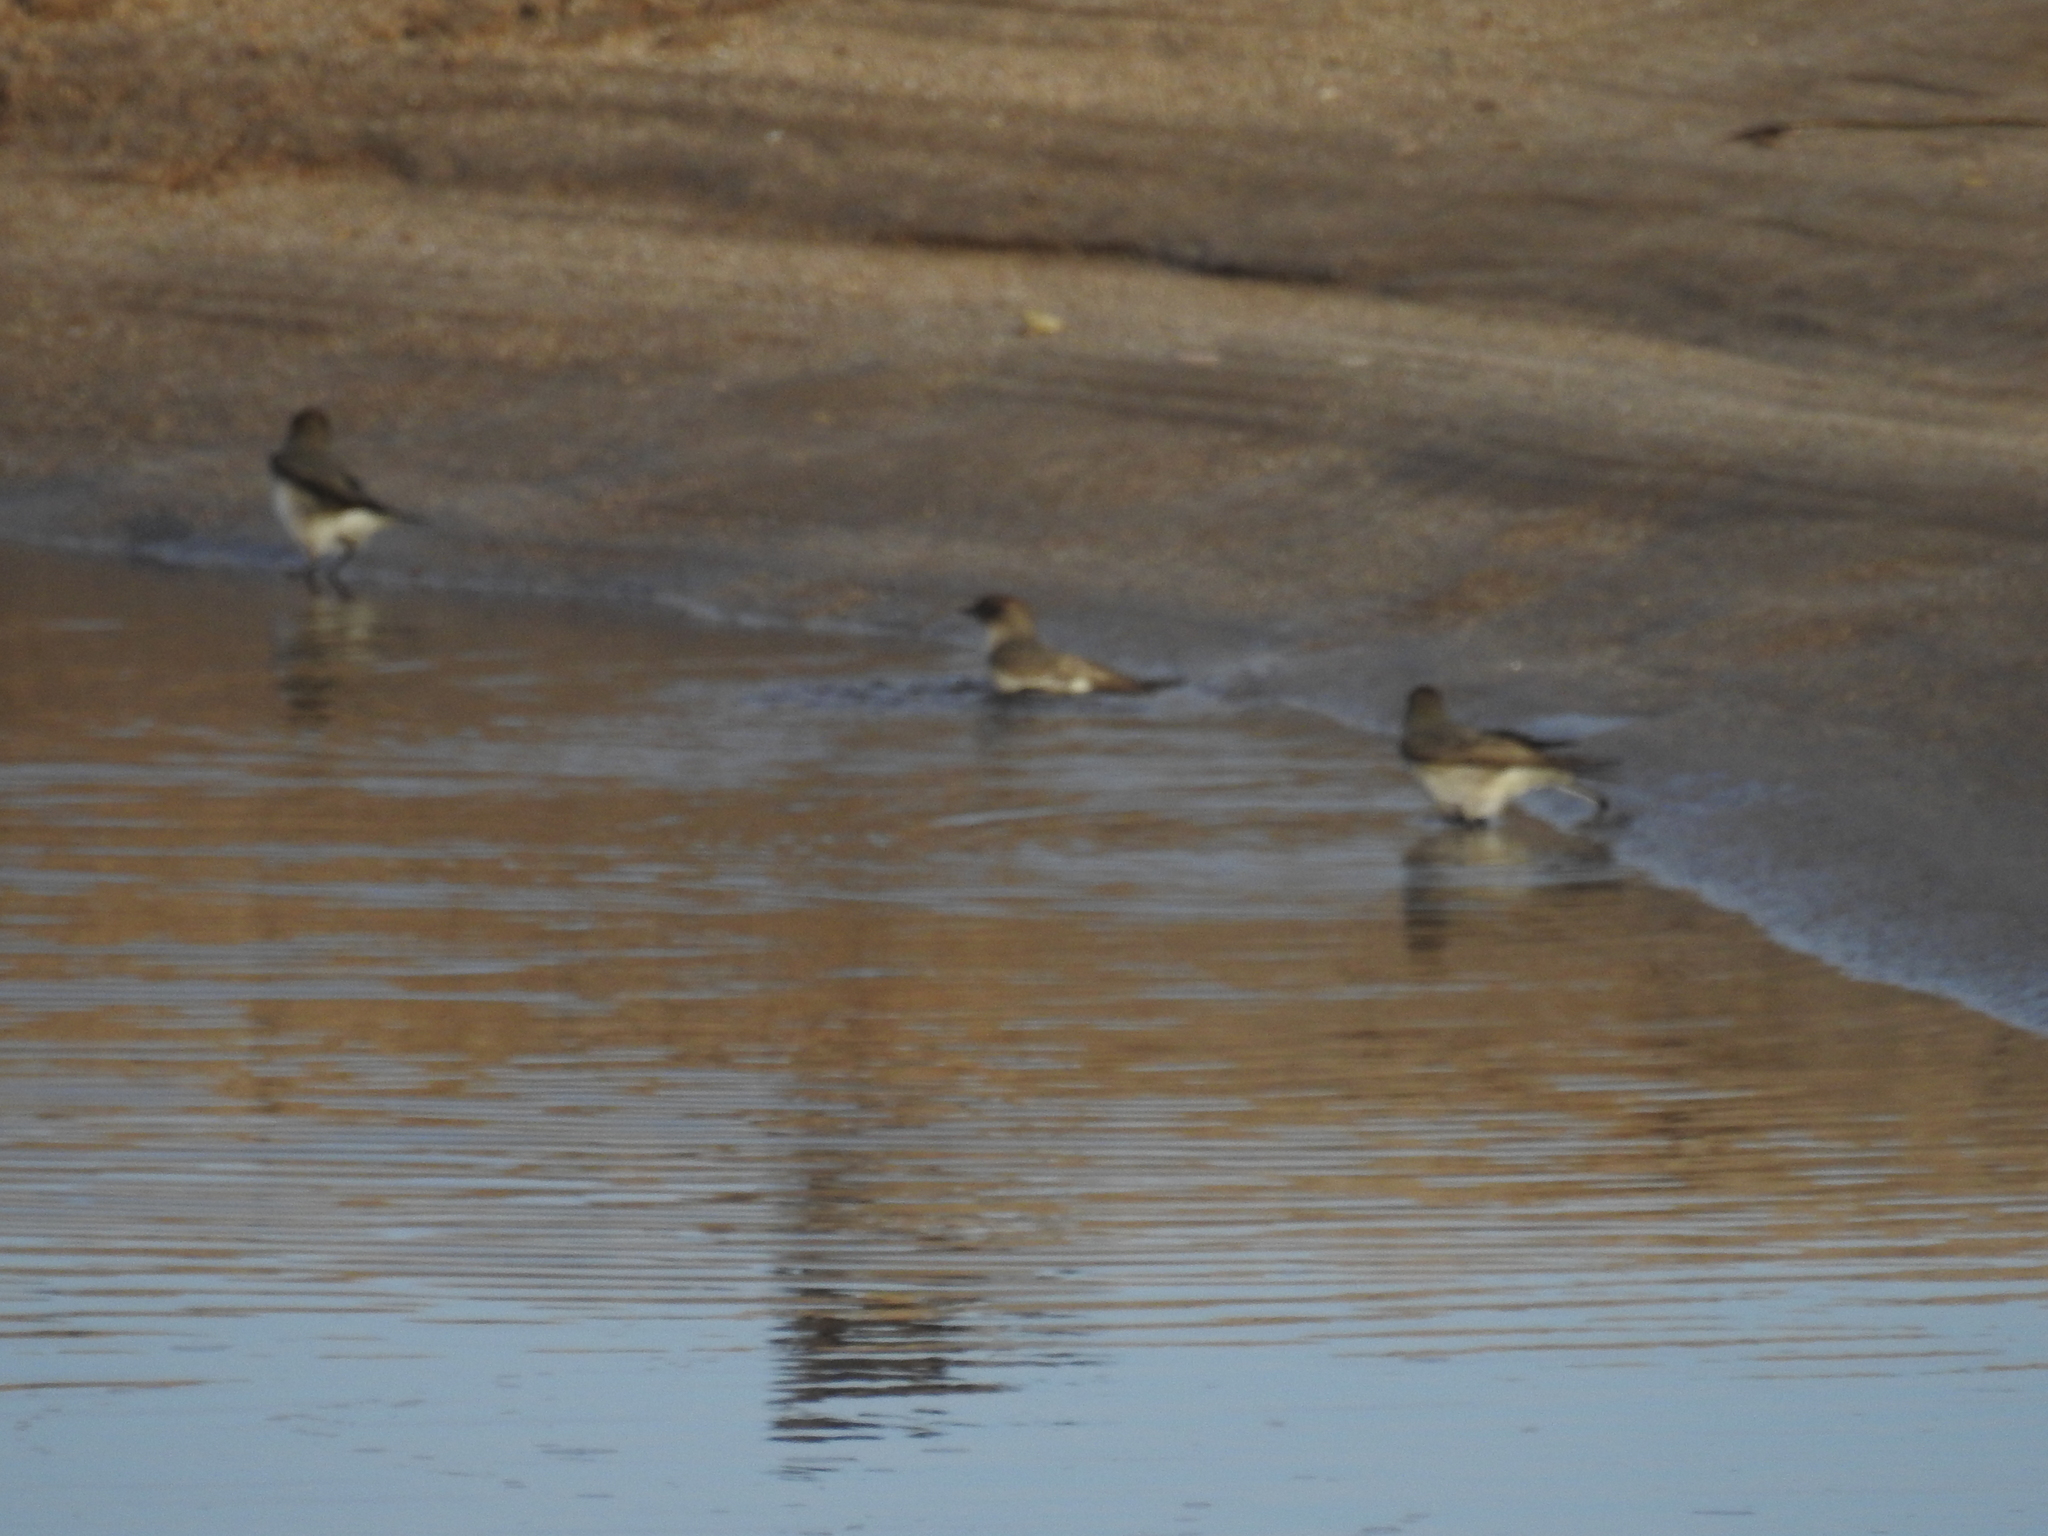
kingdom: Animalia
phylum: Chordata
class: Aves
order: Passeriformes
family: Tyrannidae
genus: Muscisaxicola
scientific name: Muscisaxicola maclovianus
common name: Dark-faced ground tyrant
